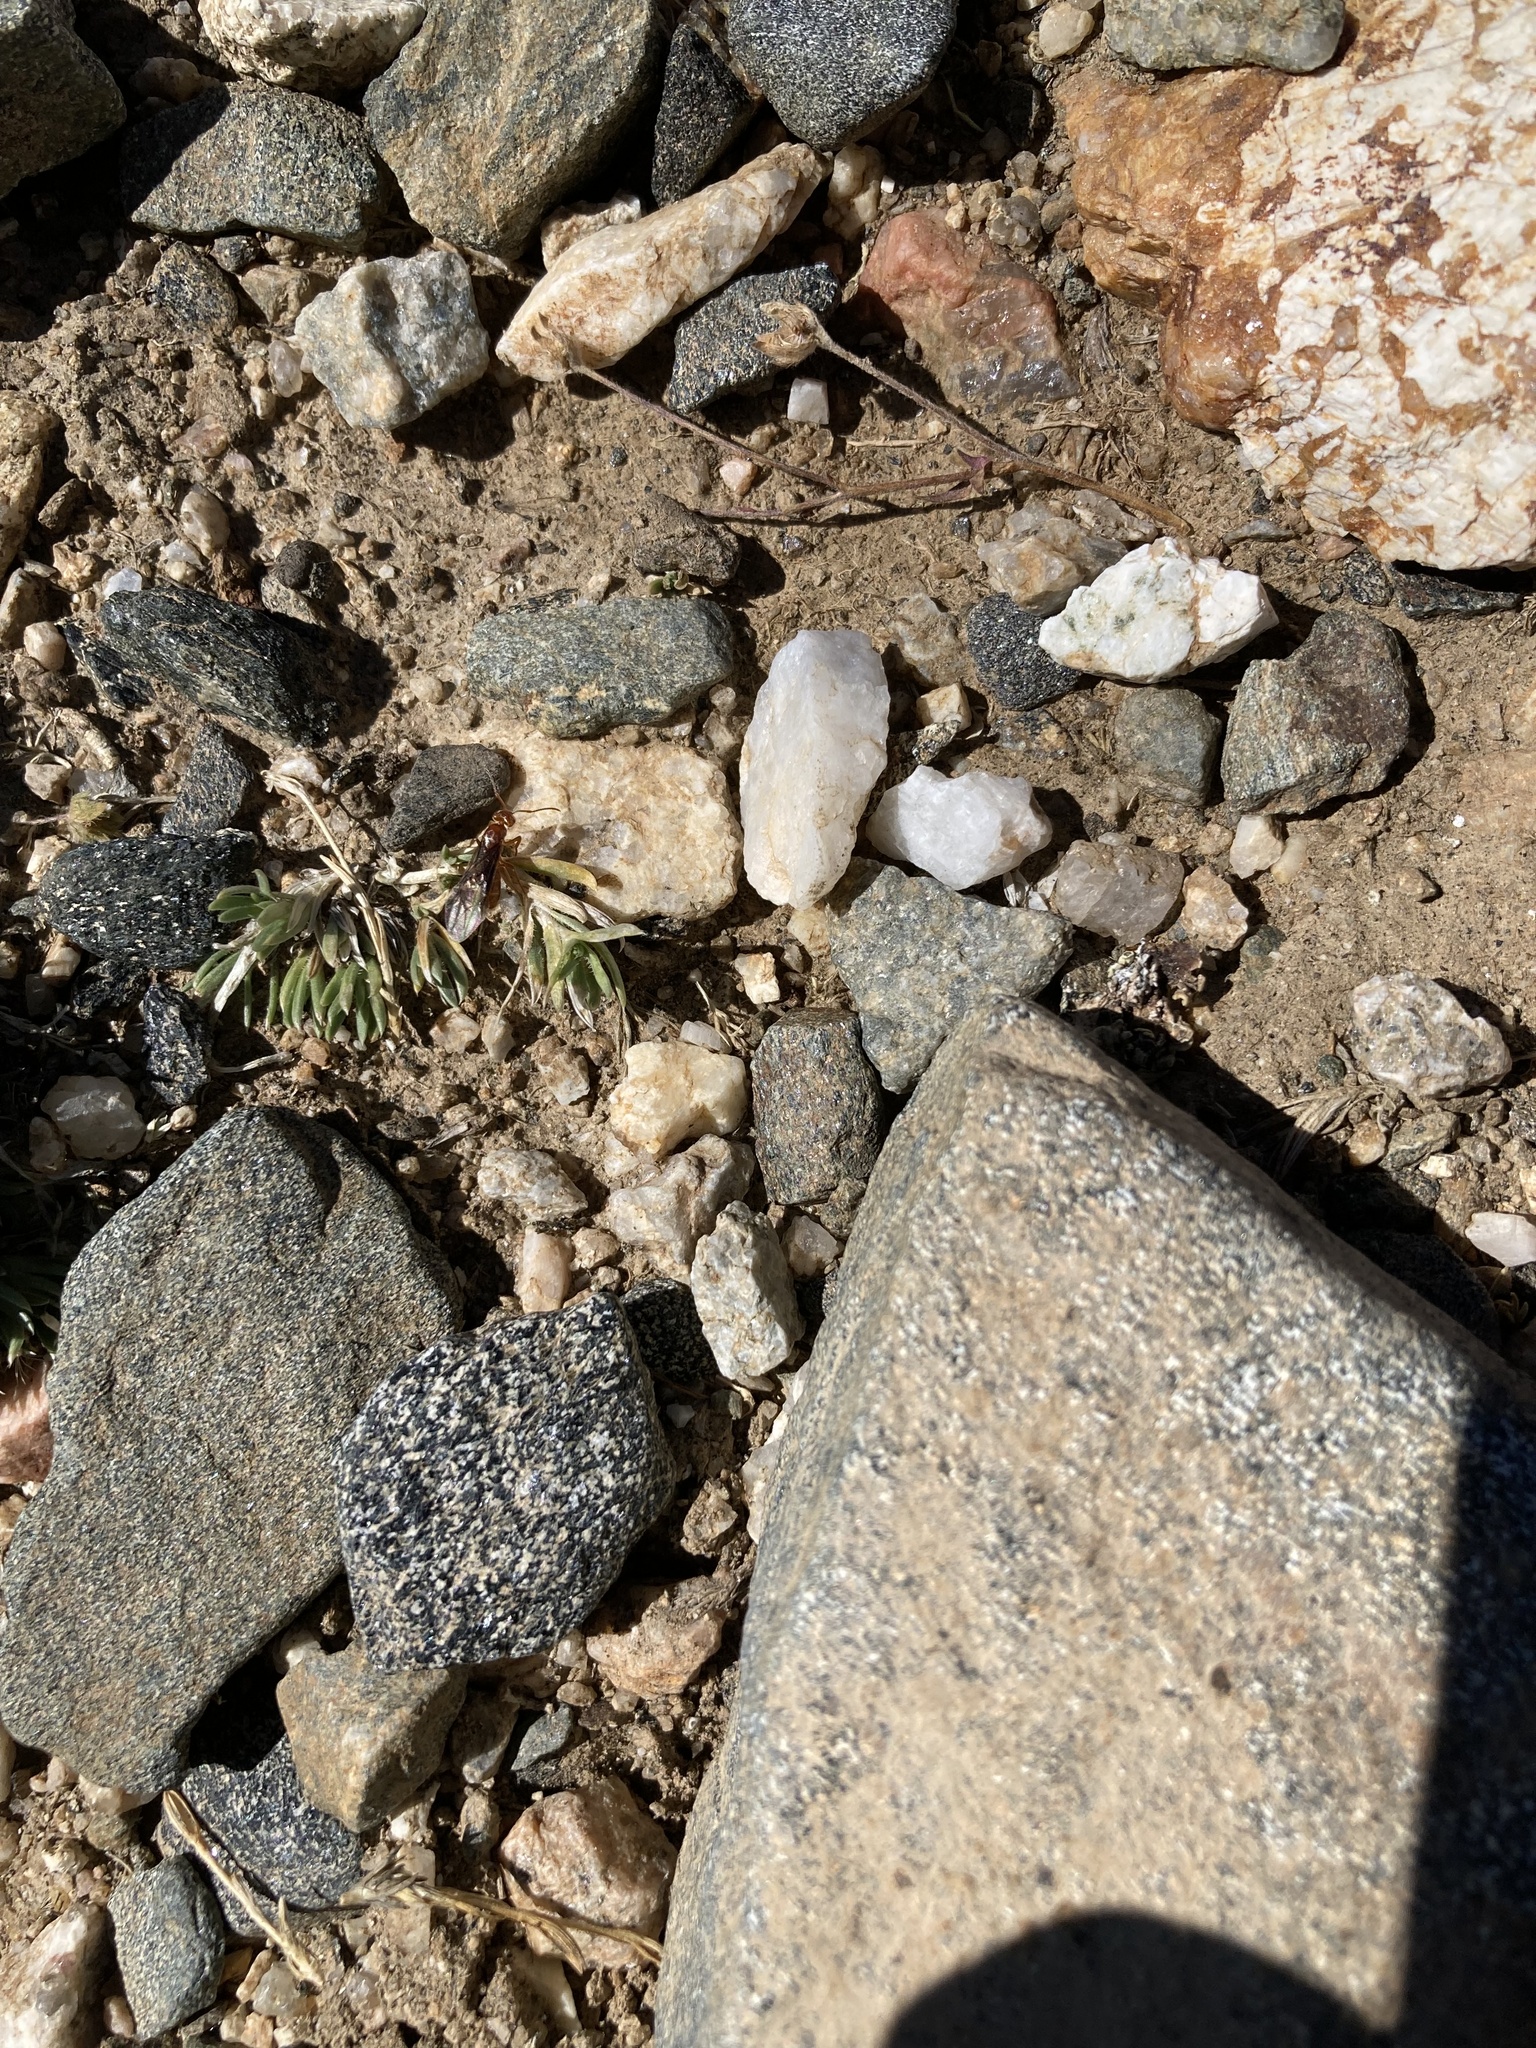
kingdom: Animalia
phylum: Arthropoda
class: Insecta
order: Hymenoptera
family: Formicidae
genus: Lasius
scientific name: Lasius subumbratus
